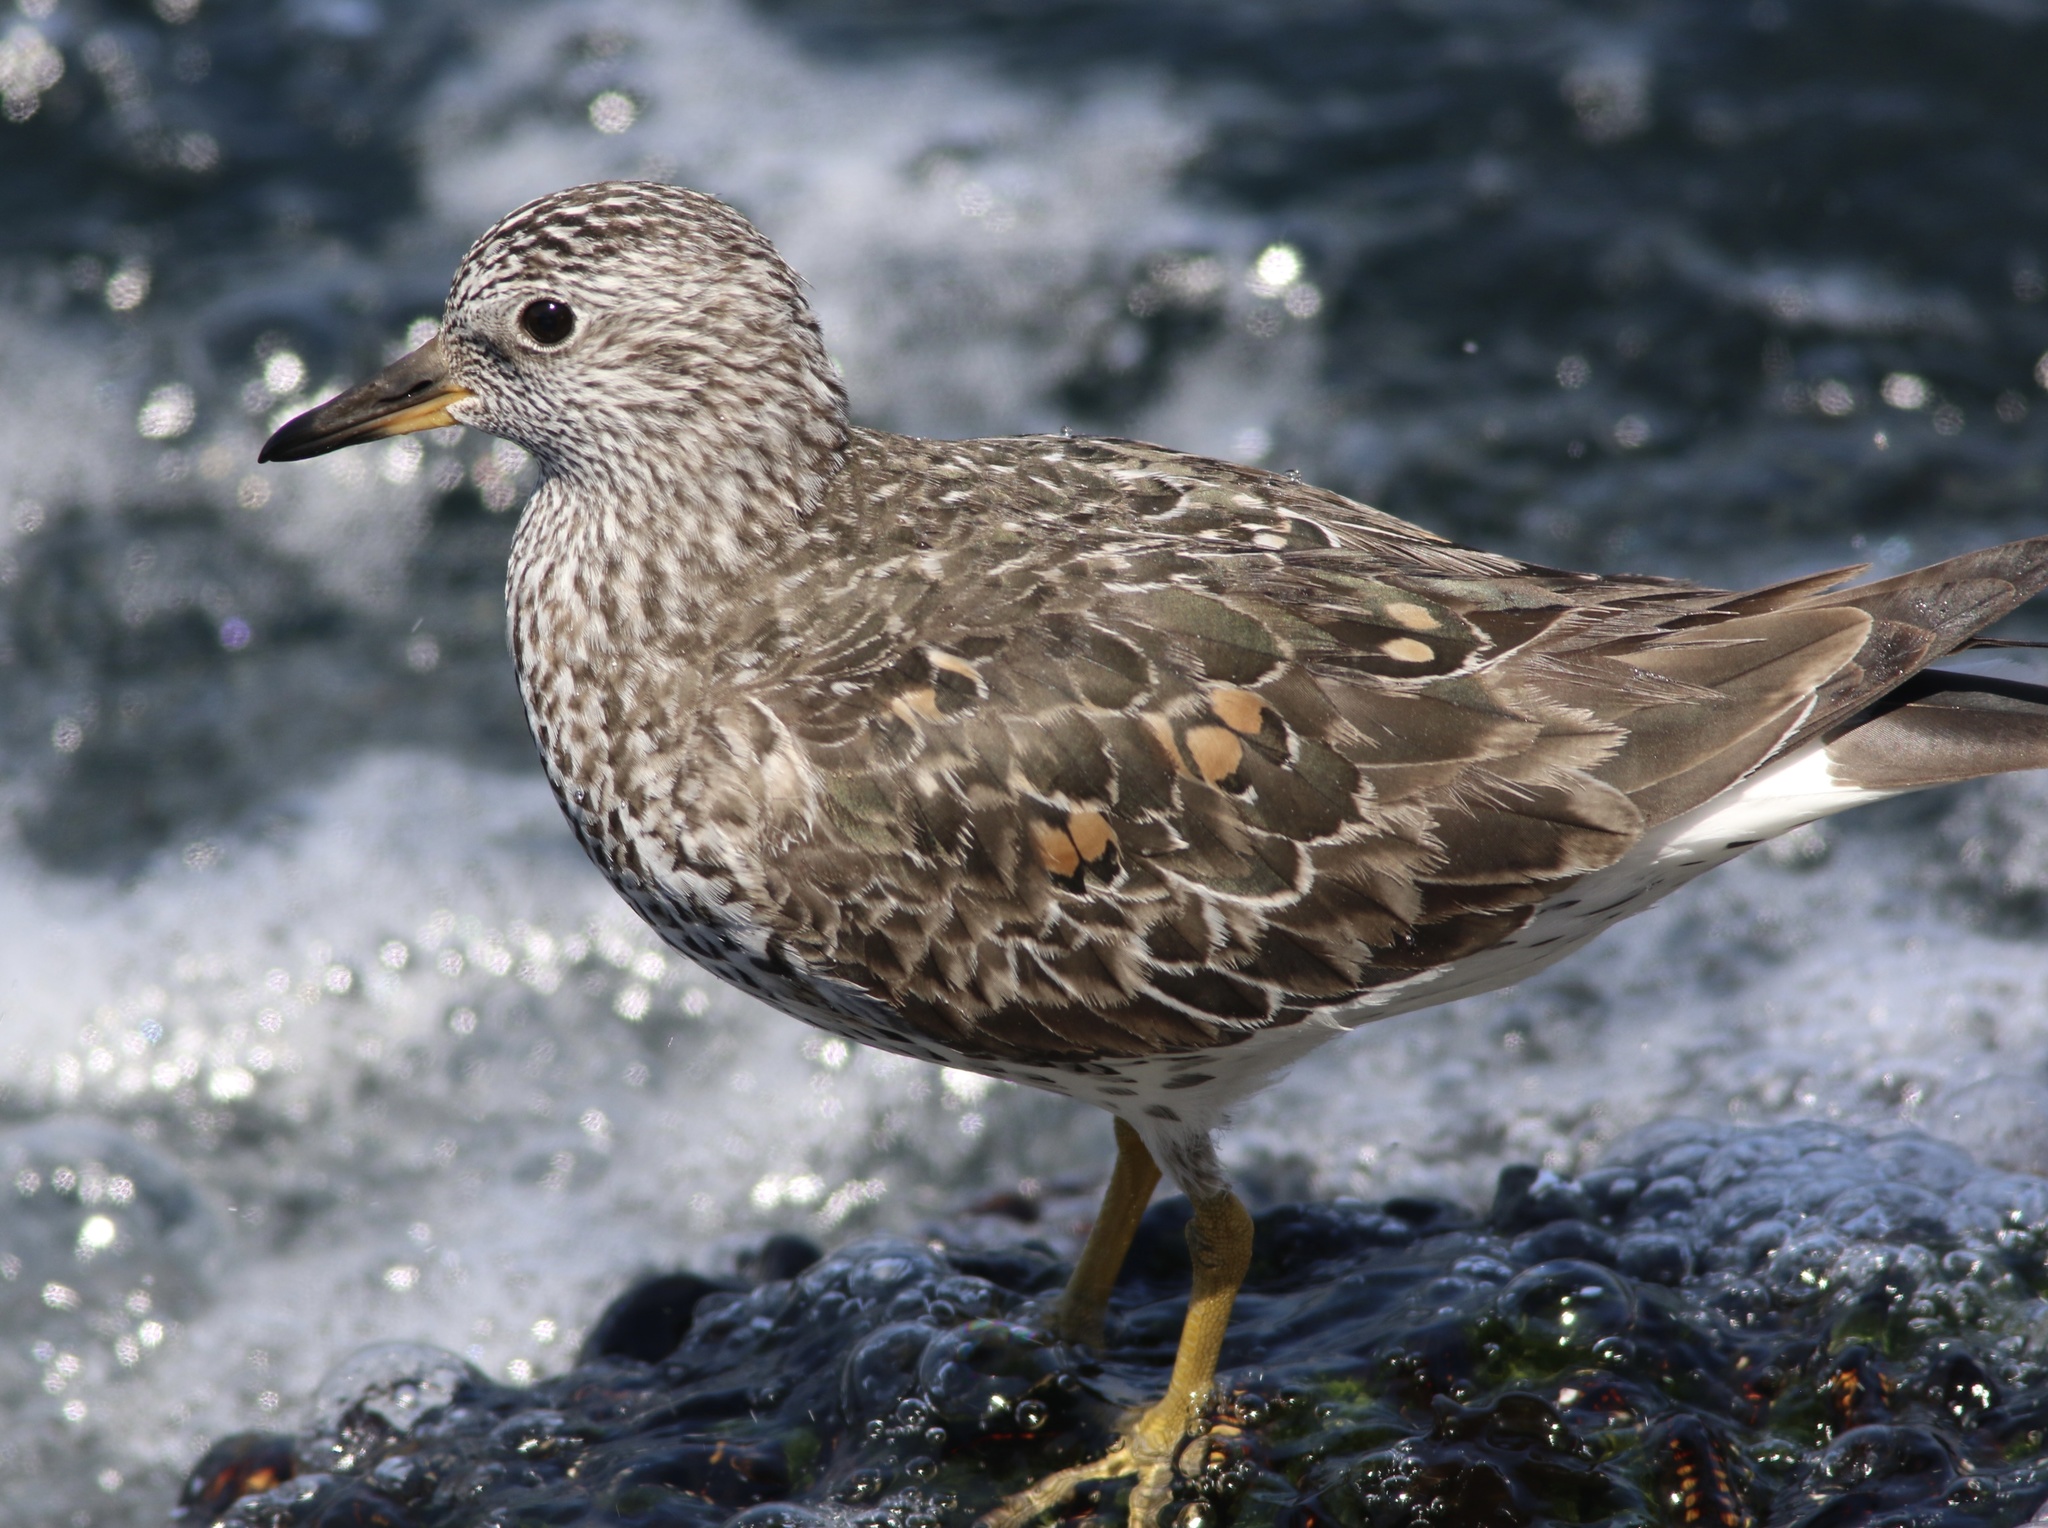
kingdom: Animalia
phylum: Chordata
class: Aves
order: Charadriiformes
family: Scolopacidae
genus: Calidris
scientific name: Calidris virgata
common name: Surfbird
